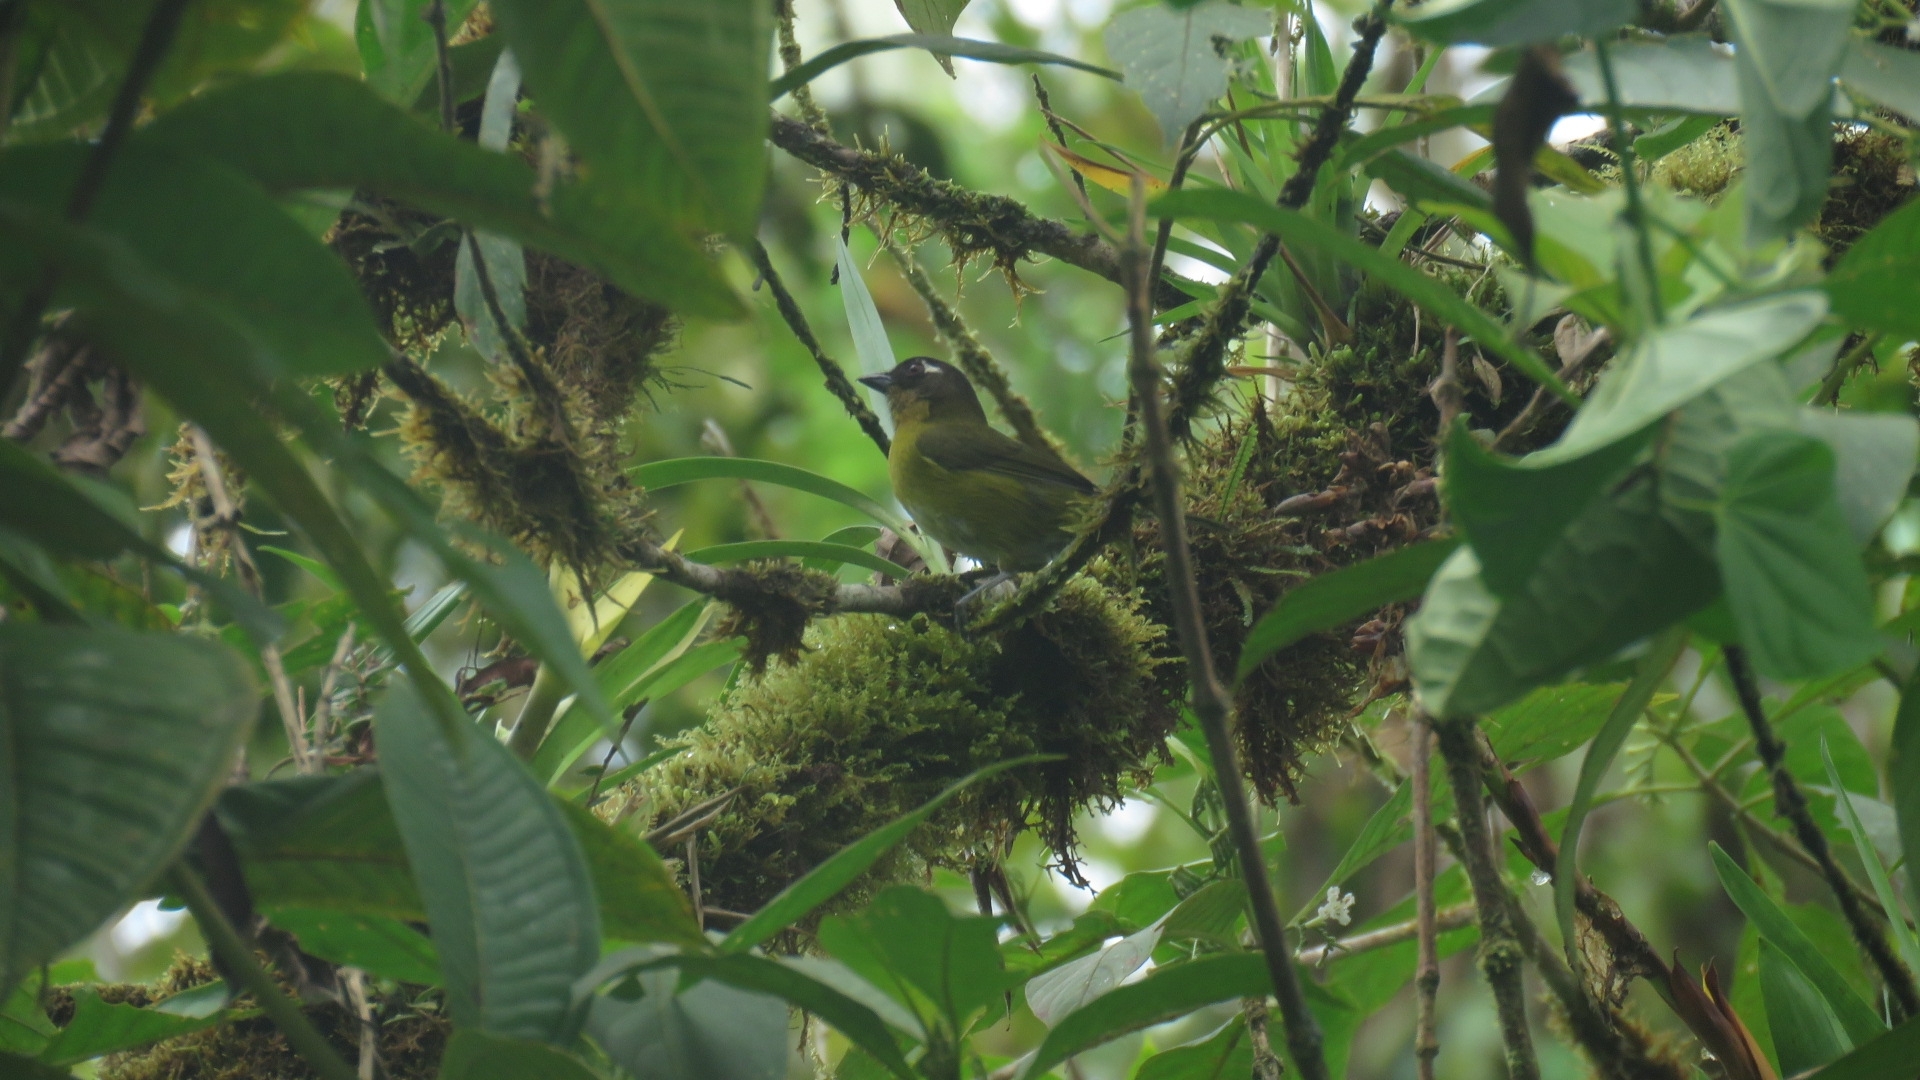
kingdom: Animalia
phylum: Chordata
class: Aves
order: Passeriformes
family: Passerellidae
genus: Chlorospingus
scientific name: Chlorospingus flavopectus
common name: Common chlorospingus
